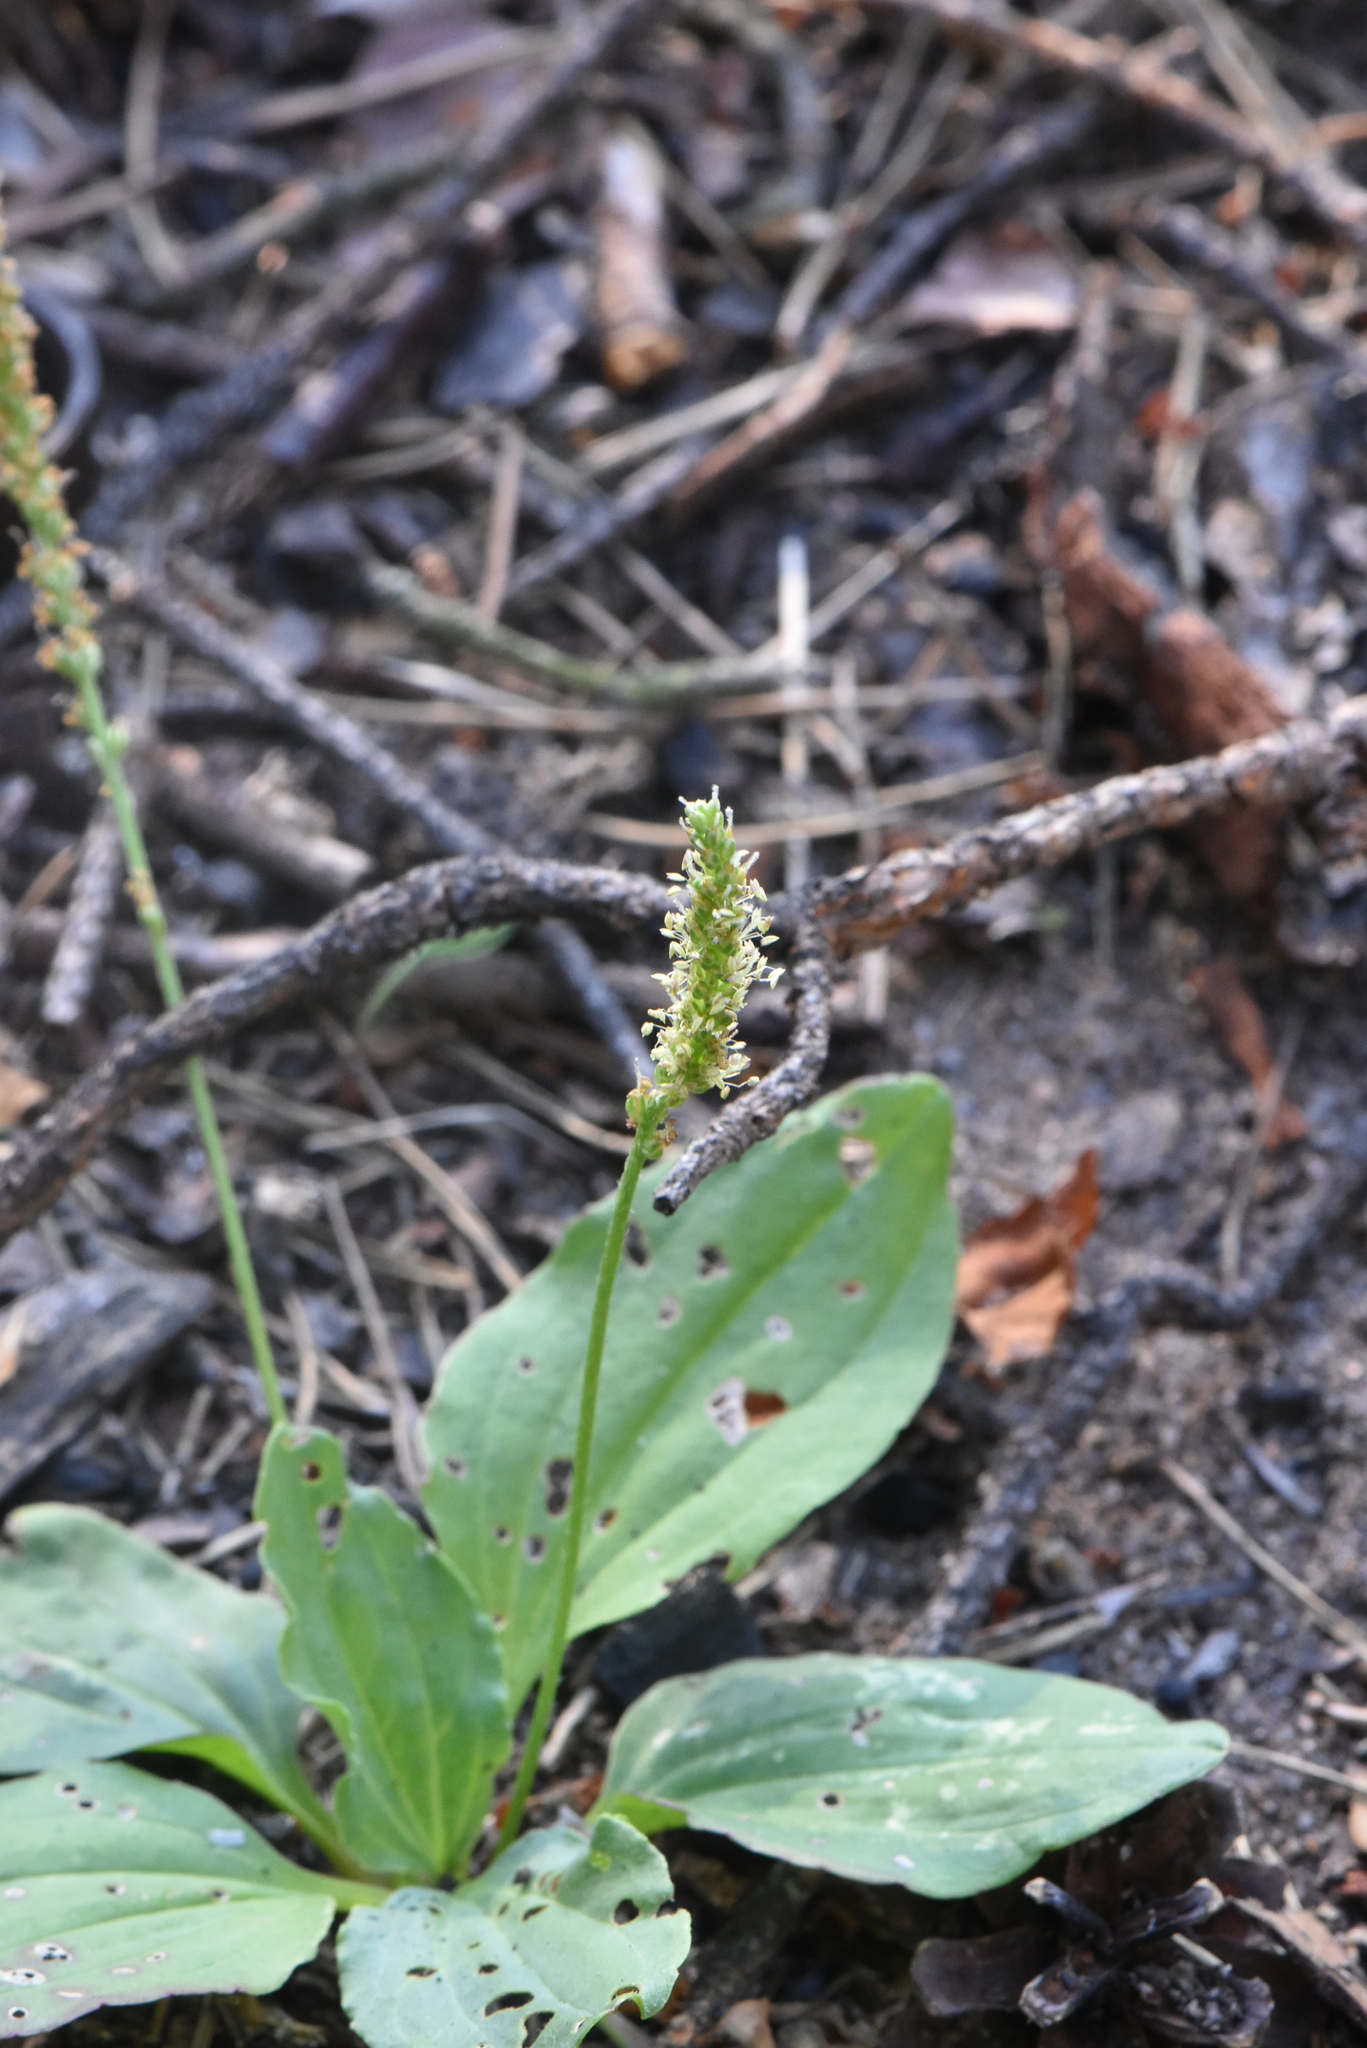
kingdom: Plantae
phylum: Tracheophyta
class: Magnoliopsida
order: Lamiales
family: Plantaginaceae
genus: Plantago
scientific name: Plantago major
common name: Common plantain
